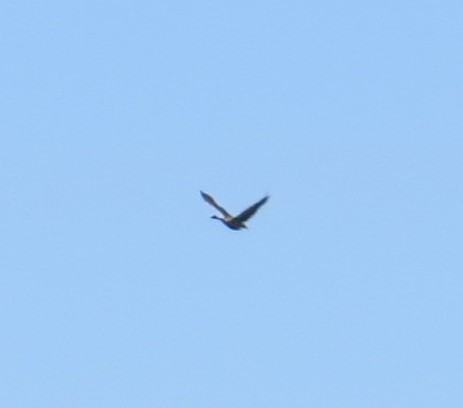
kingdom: Animalia
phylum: Chordata
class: Aves
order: Anseriformes
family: Anatidae
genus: Branta
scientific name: Branta canadensis
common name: Canada goose
